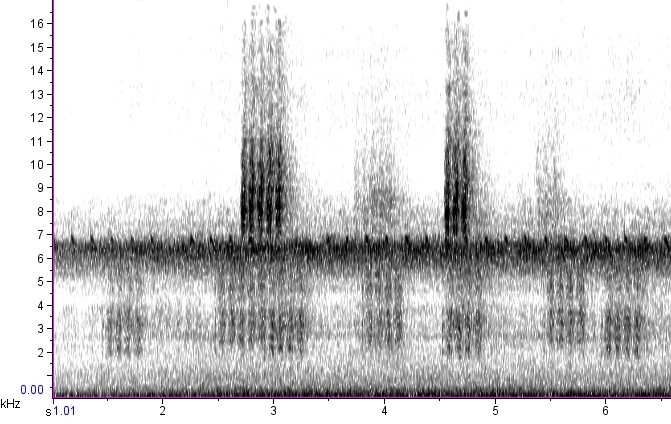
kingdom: Animalia
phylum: Arthropoda
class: Insecta
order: Orthoptera
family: Tettigoniidae
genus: Microcentrum
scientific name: Microcentrum retinerve
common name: Angular-winged katydid
